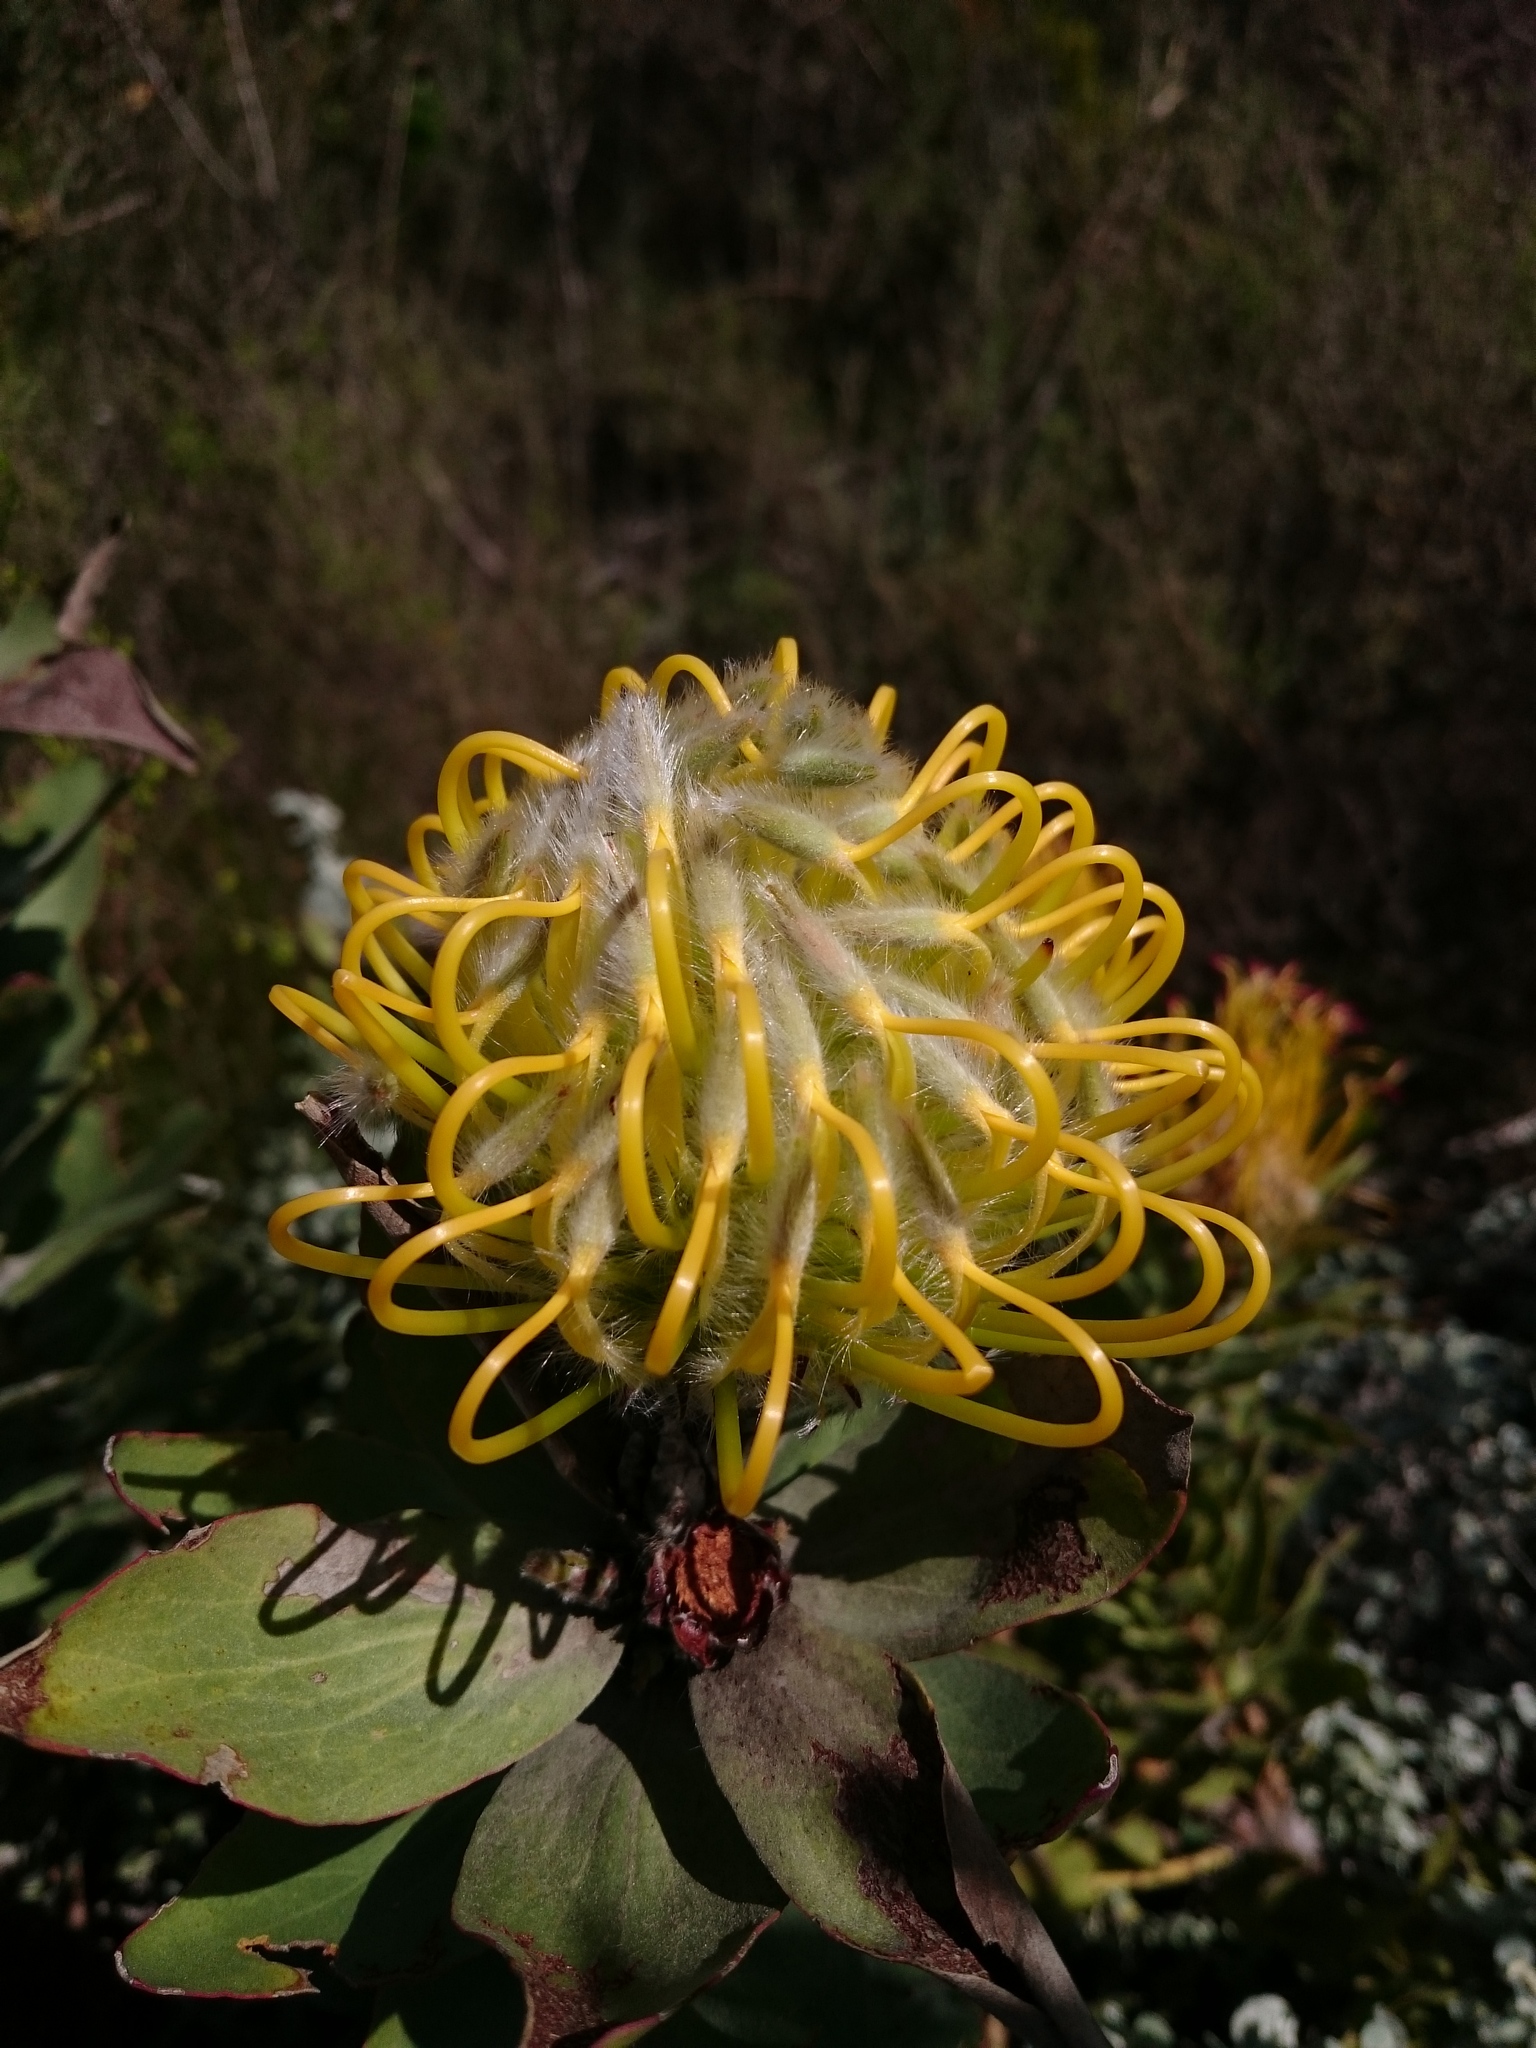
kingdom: Plantae
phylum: Tracheophyta
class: Magnoliopsida
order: Proteales
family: Proteaceae
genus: Leucospermum
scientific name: Leucospermum grandiflorum
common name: Grey-leaf fountain pincushion
